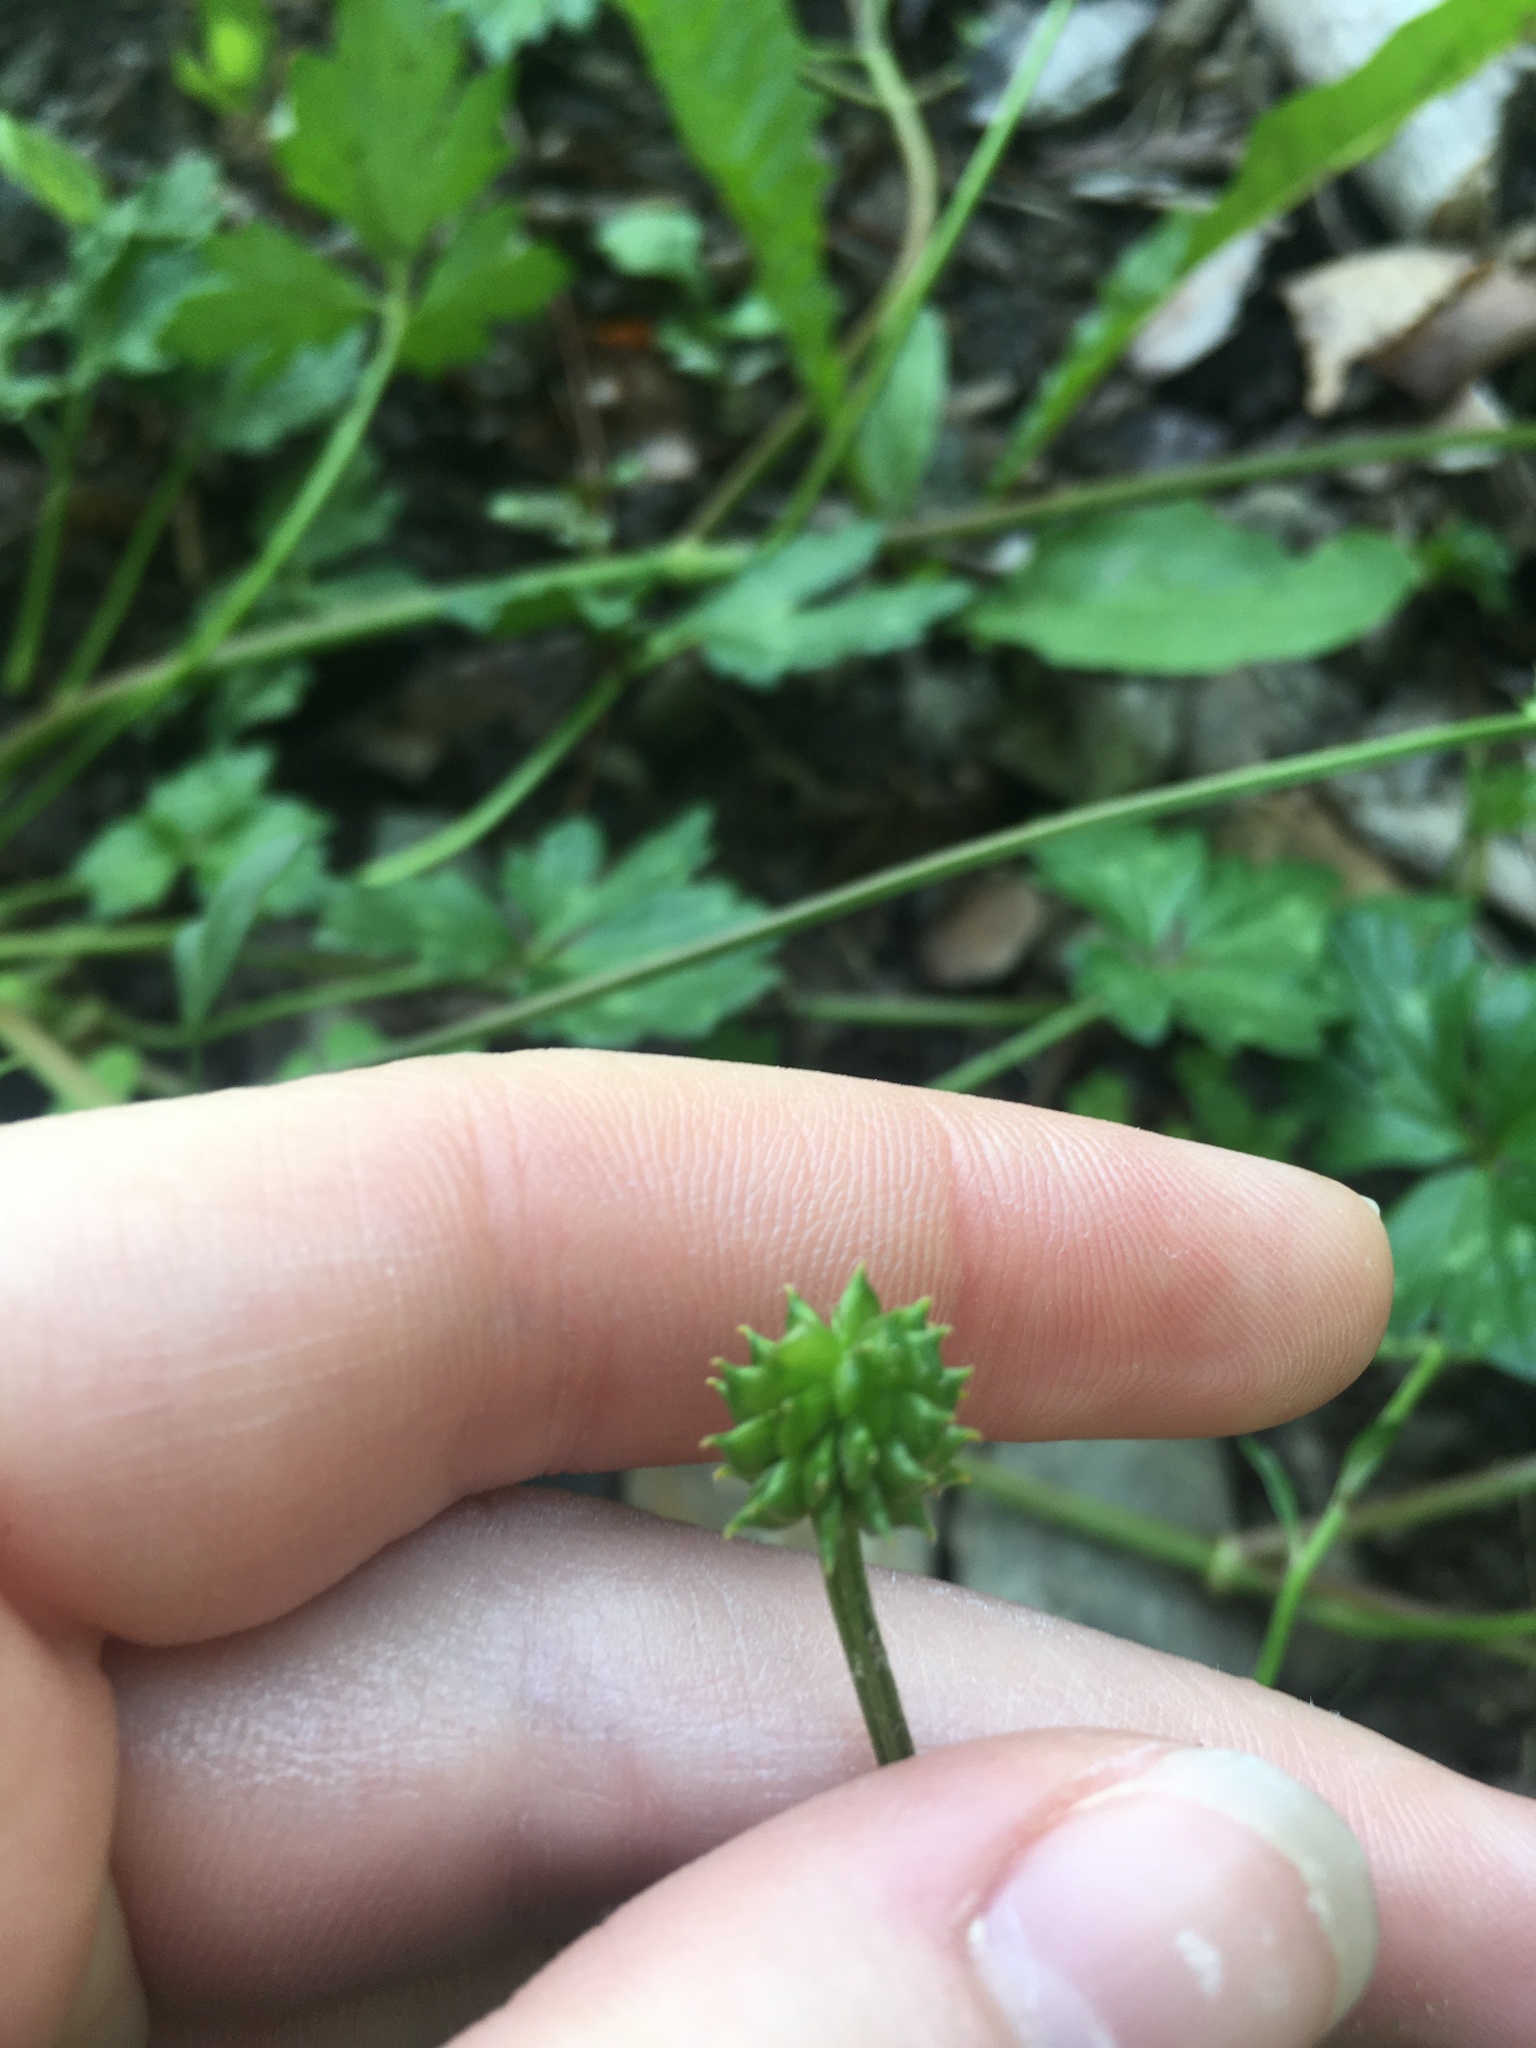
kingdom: Plantae
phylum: Tracheophyta
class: Magnoliopsida
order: Ranunculales
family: Ranunculaceae
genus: Ranunculus
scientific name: Ranunculus repens
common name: Creeping buttercup
